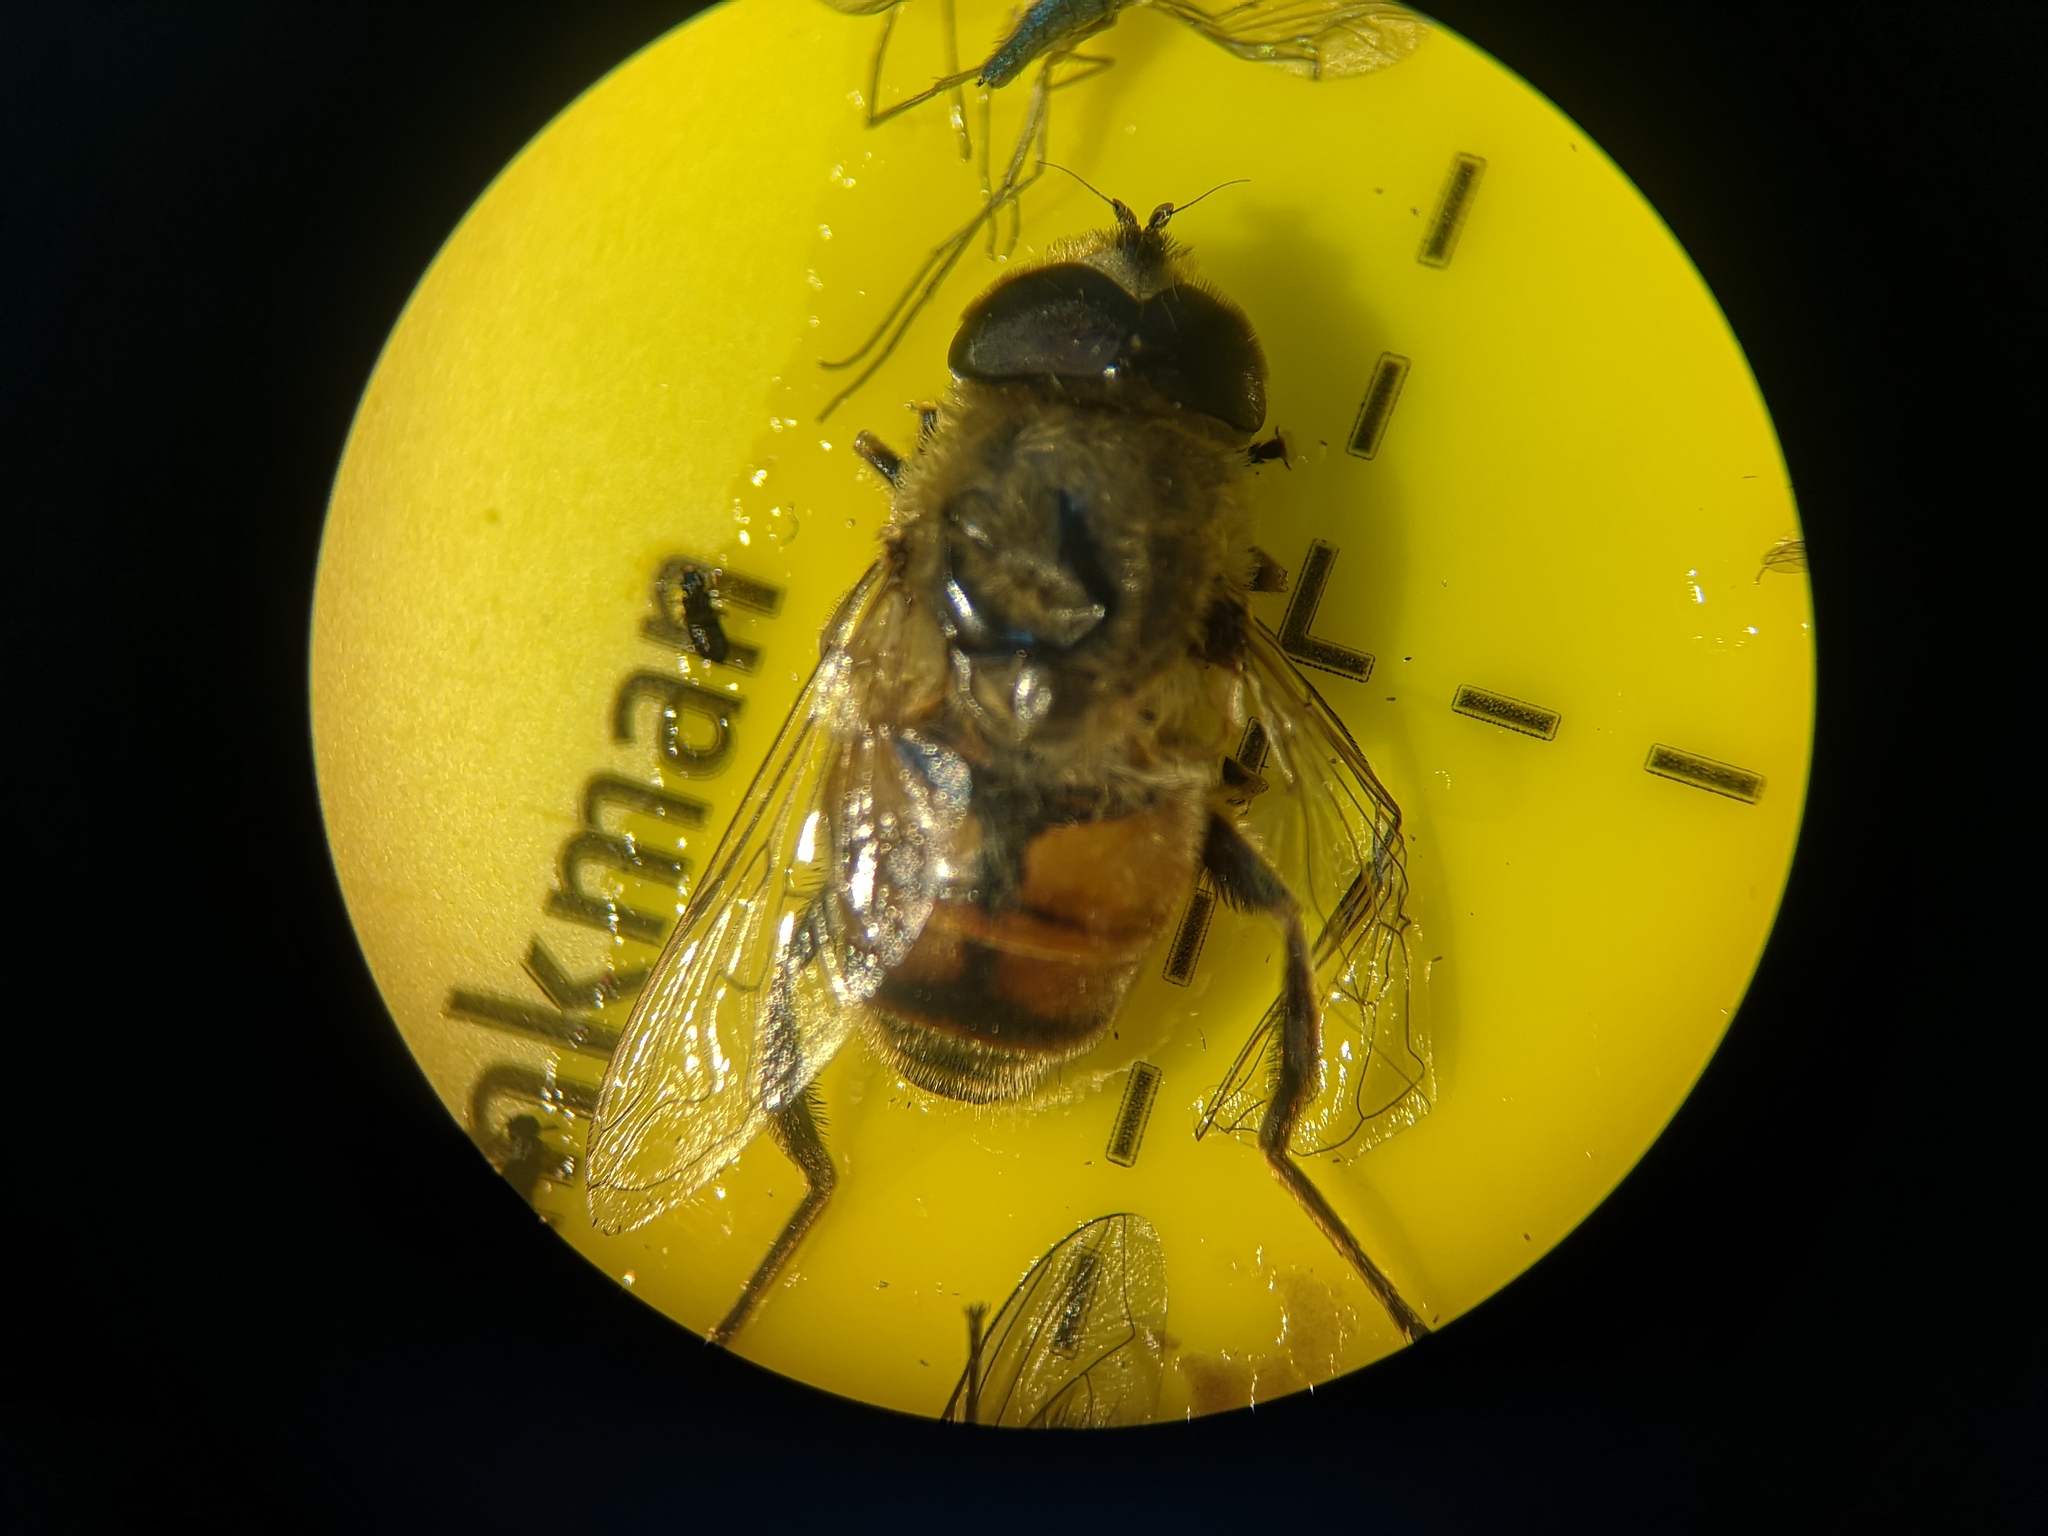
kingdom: Animalia
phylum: Arthropoda
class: Insecta
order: Diptera
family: Syrphidae
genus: Eristalis
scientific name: Eristalis tenax
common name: Drone fly
